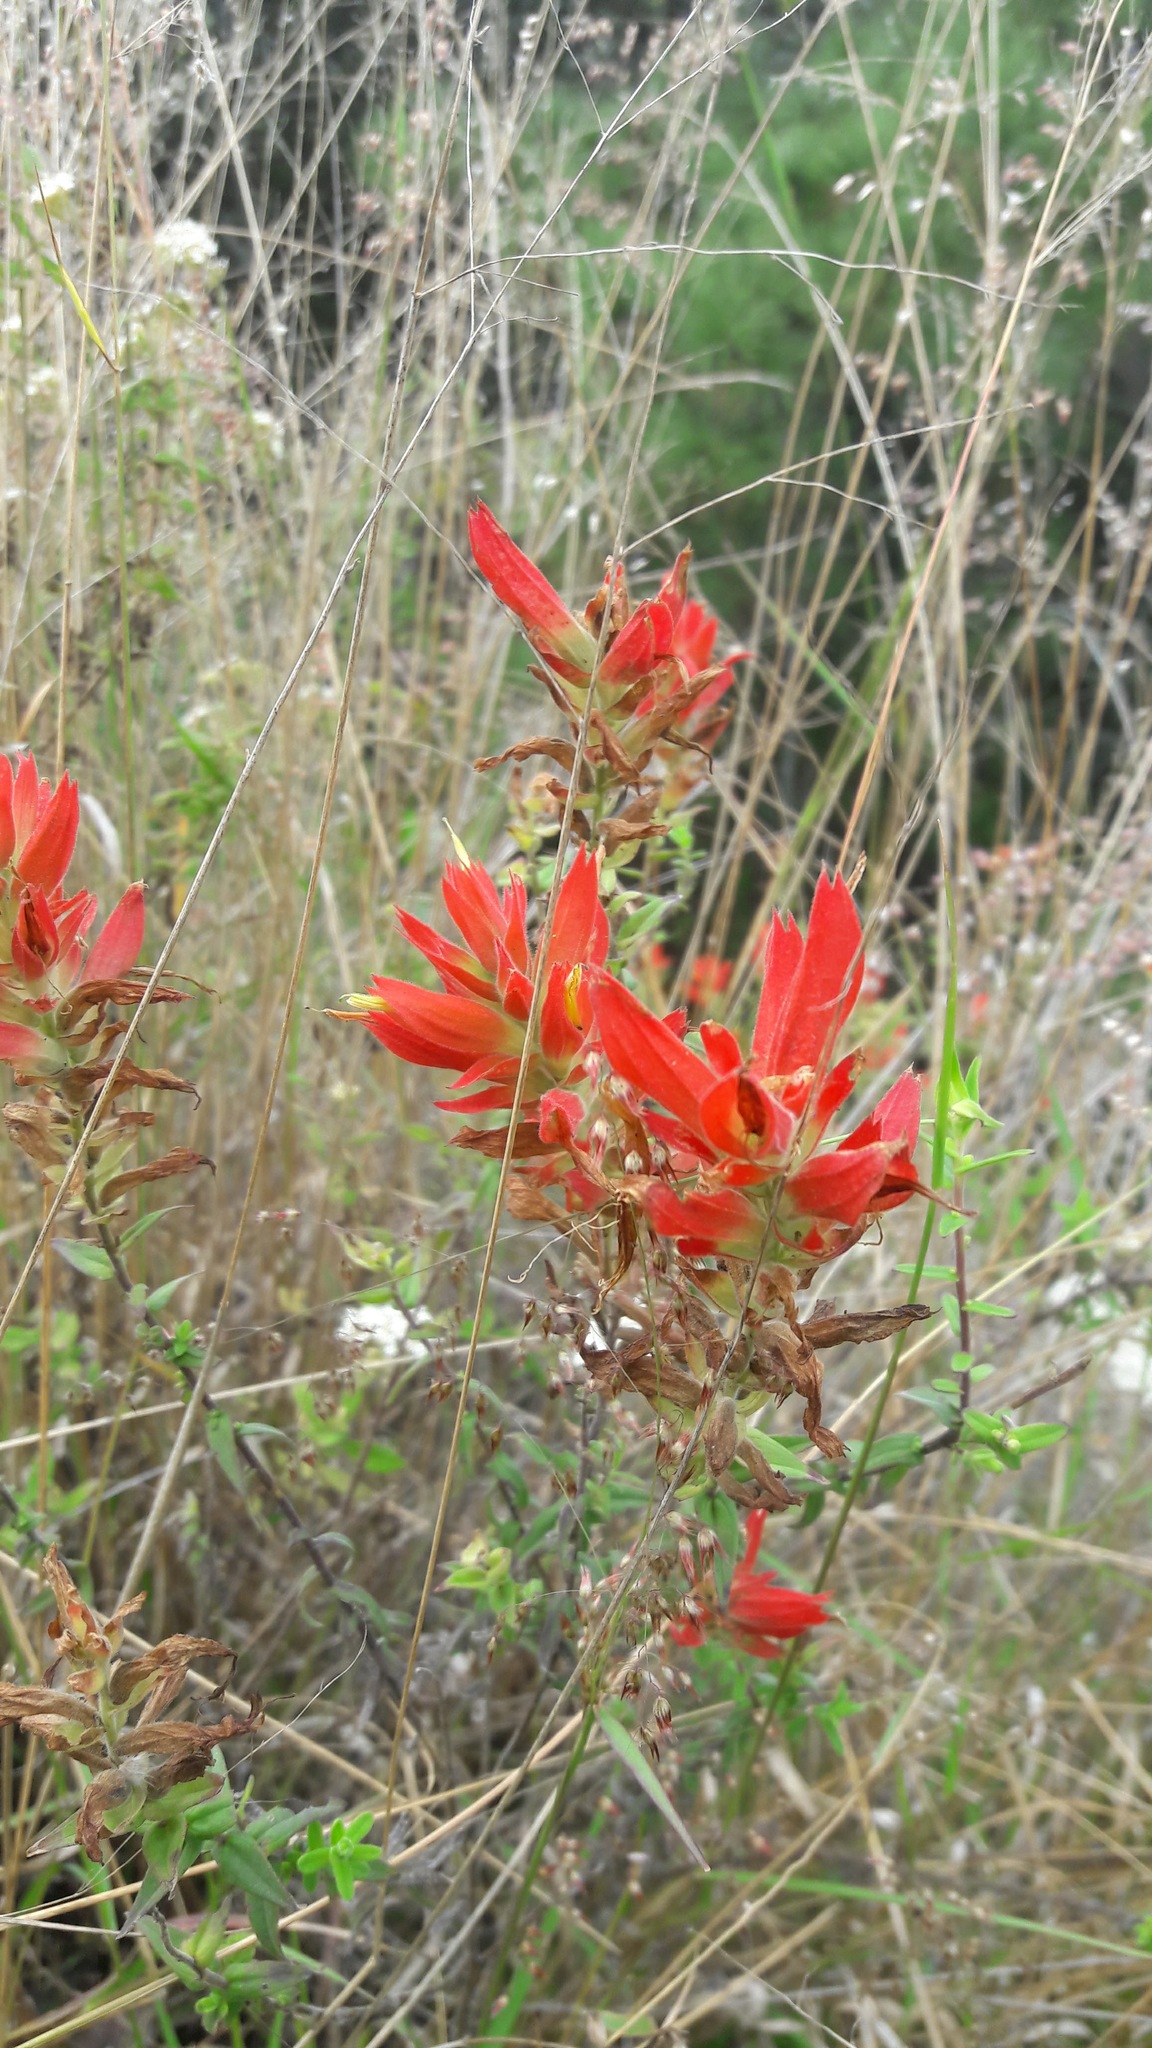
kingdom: Plantae
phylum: Tracheophyta
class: Magnoliopsida
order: Lamiales
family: Orobanchaceae
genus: Castilleja
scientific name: Castilleja tenuiflora
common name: Santa catalina indian paintbrush
